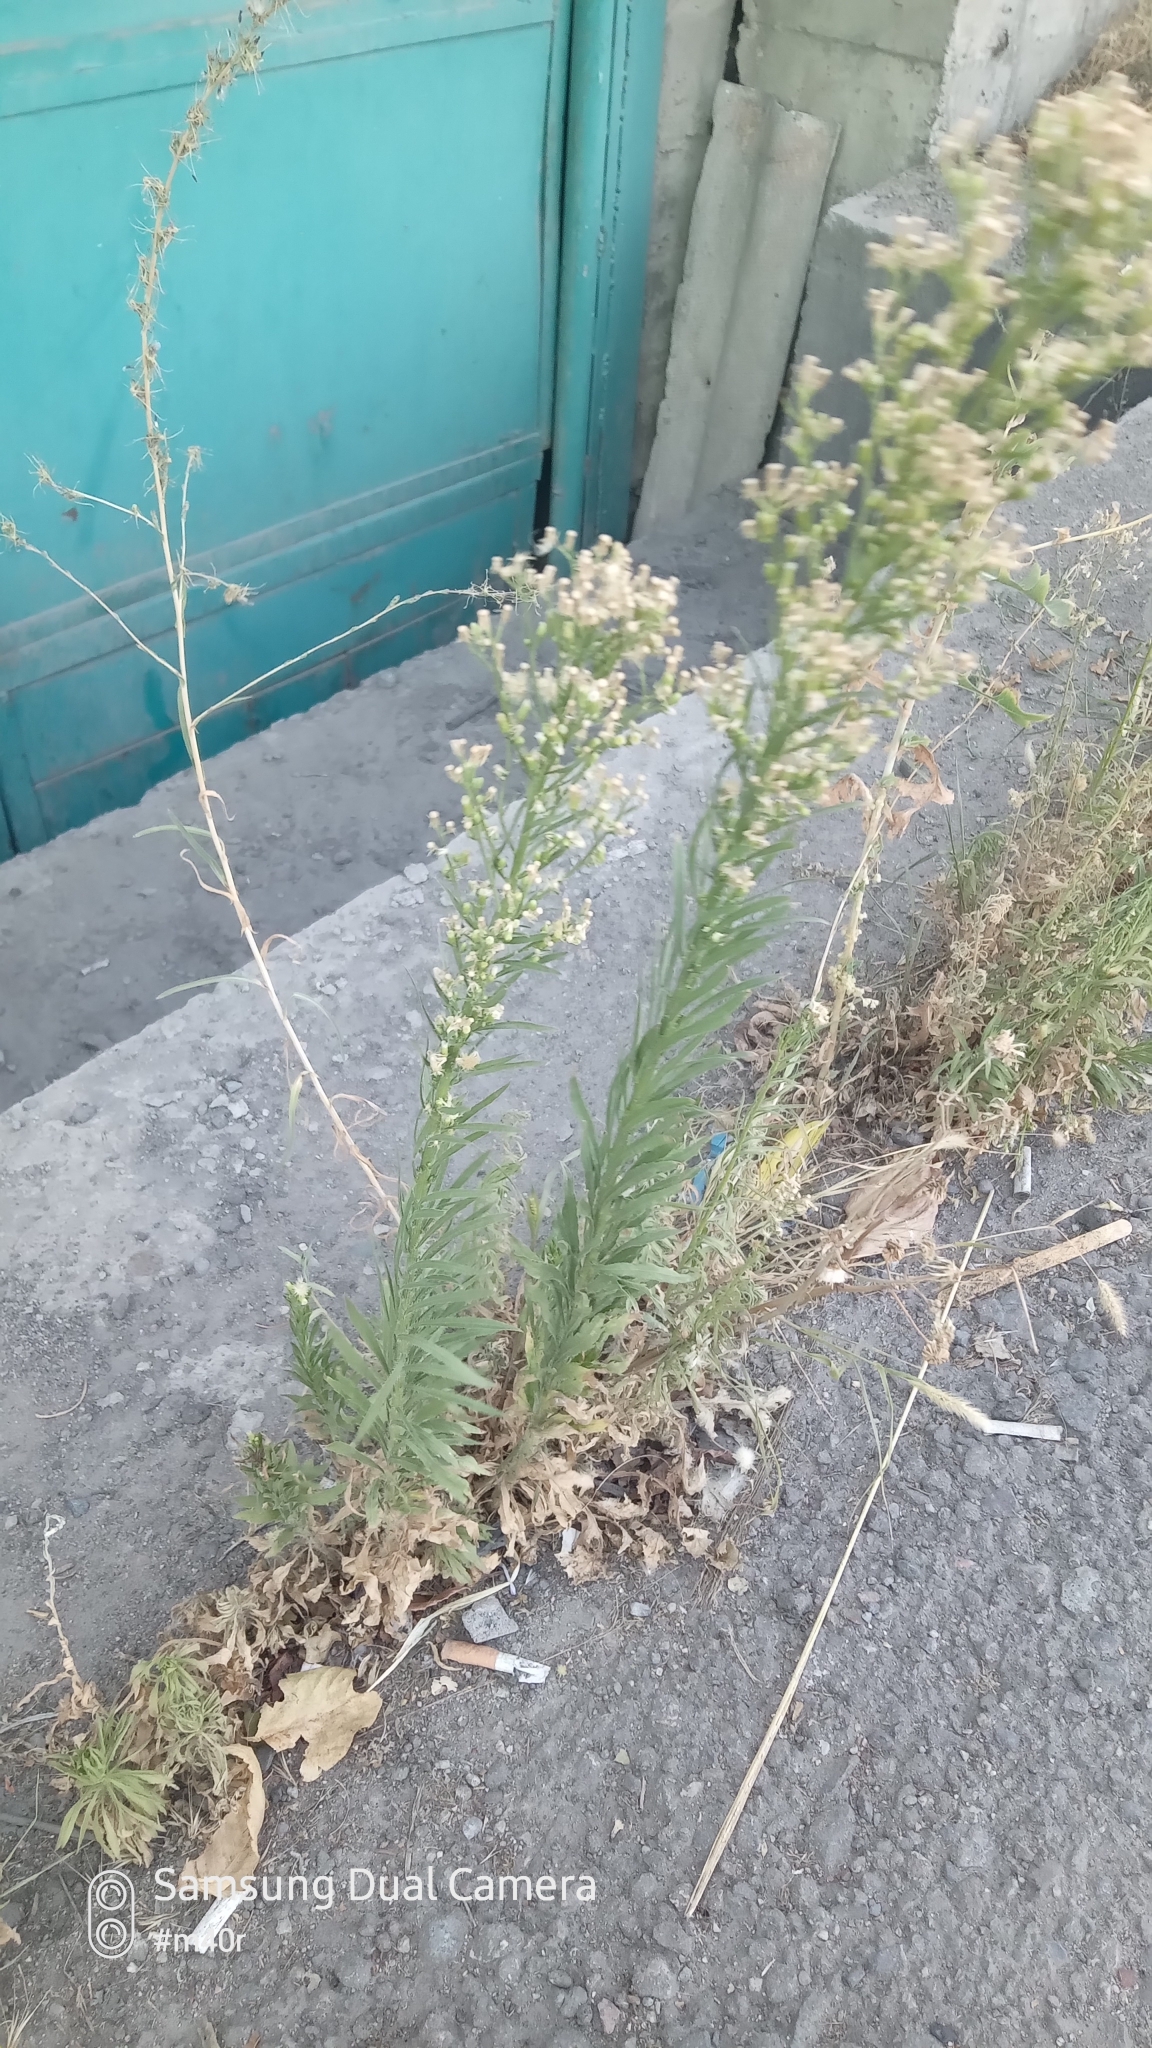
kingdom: Plantae
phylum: Tracheophyta
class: Magnoliopsida
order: Asterales
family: Asteraceae
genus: Erigeron
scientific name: Erigeron canadensis
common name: Canadian fleabane
